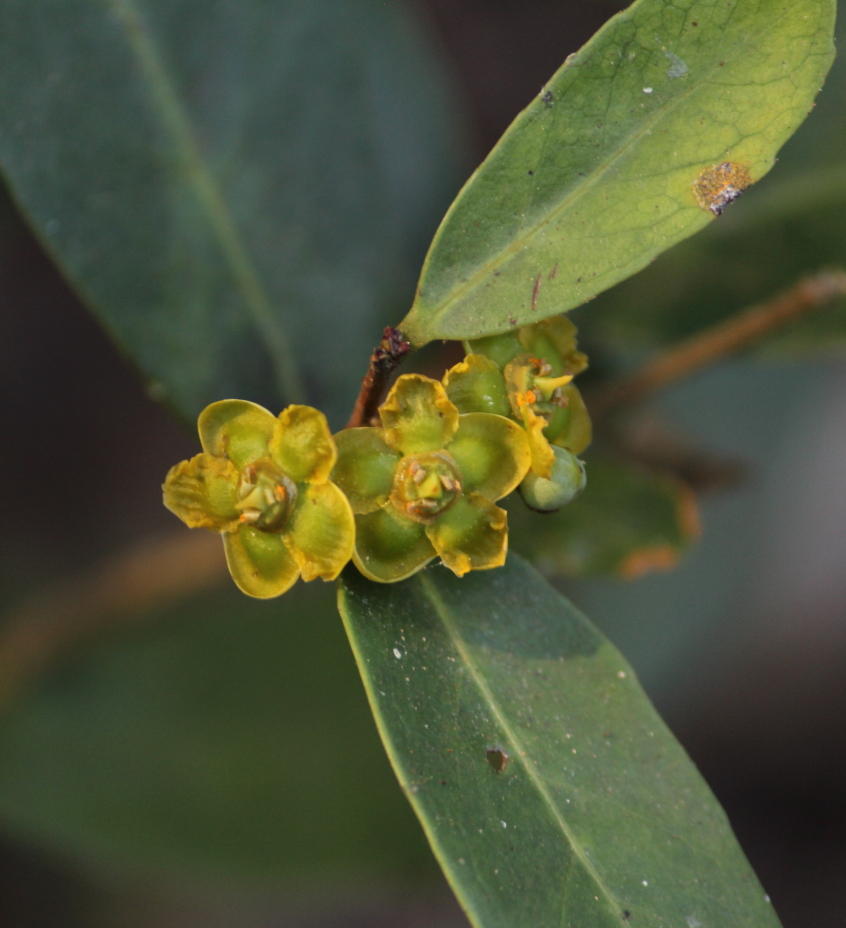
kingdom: Plantae
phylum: Tracheophyta
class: Magnoliopsida
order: Celastrales
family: Celastraceae
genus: Salacia
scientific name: Salacia kraussii
